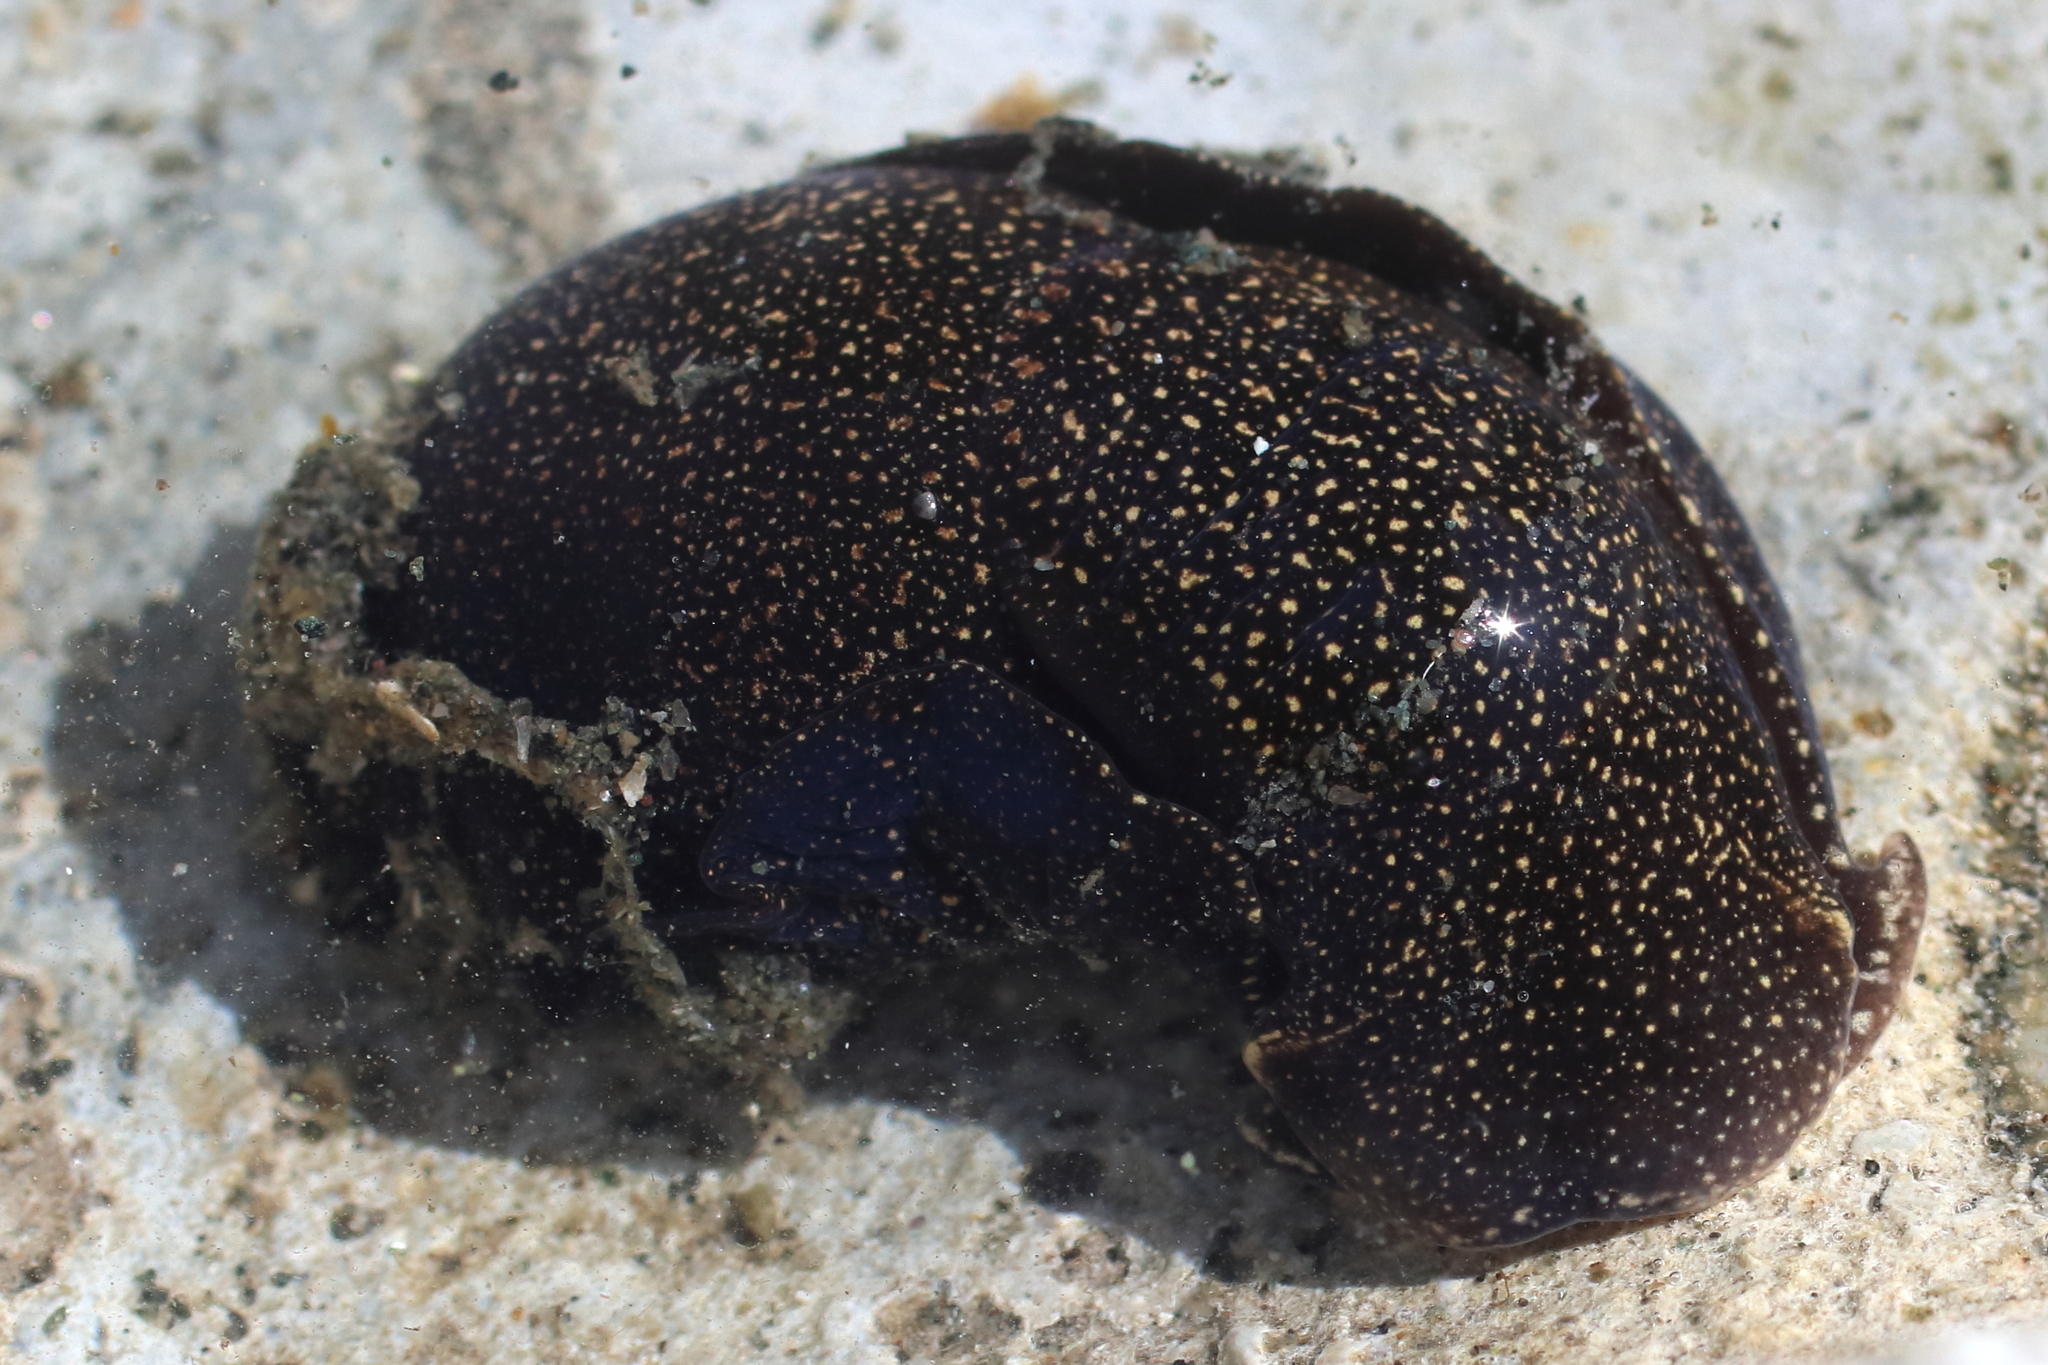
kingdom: Animalia
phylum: Mollusca
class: Gastropoda
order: Cephalaspidea
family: Aglajidae
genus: Aglaja
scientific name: Aglaja ocelligera
